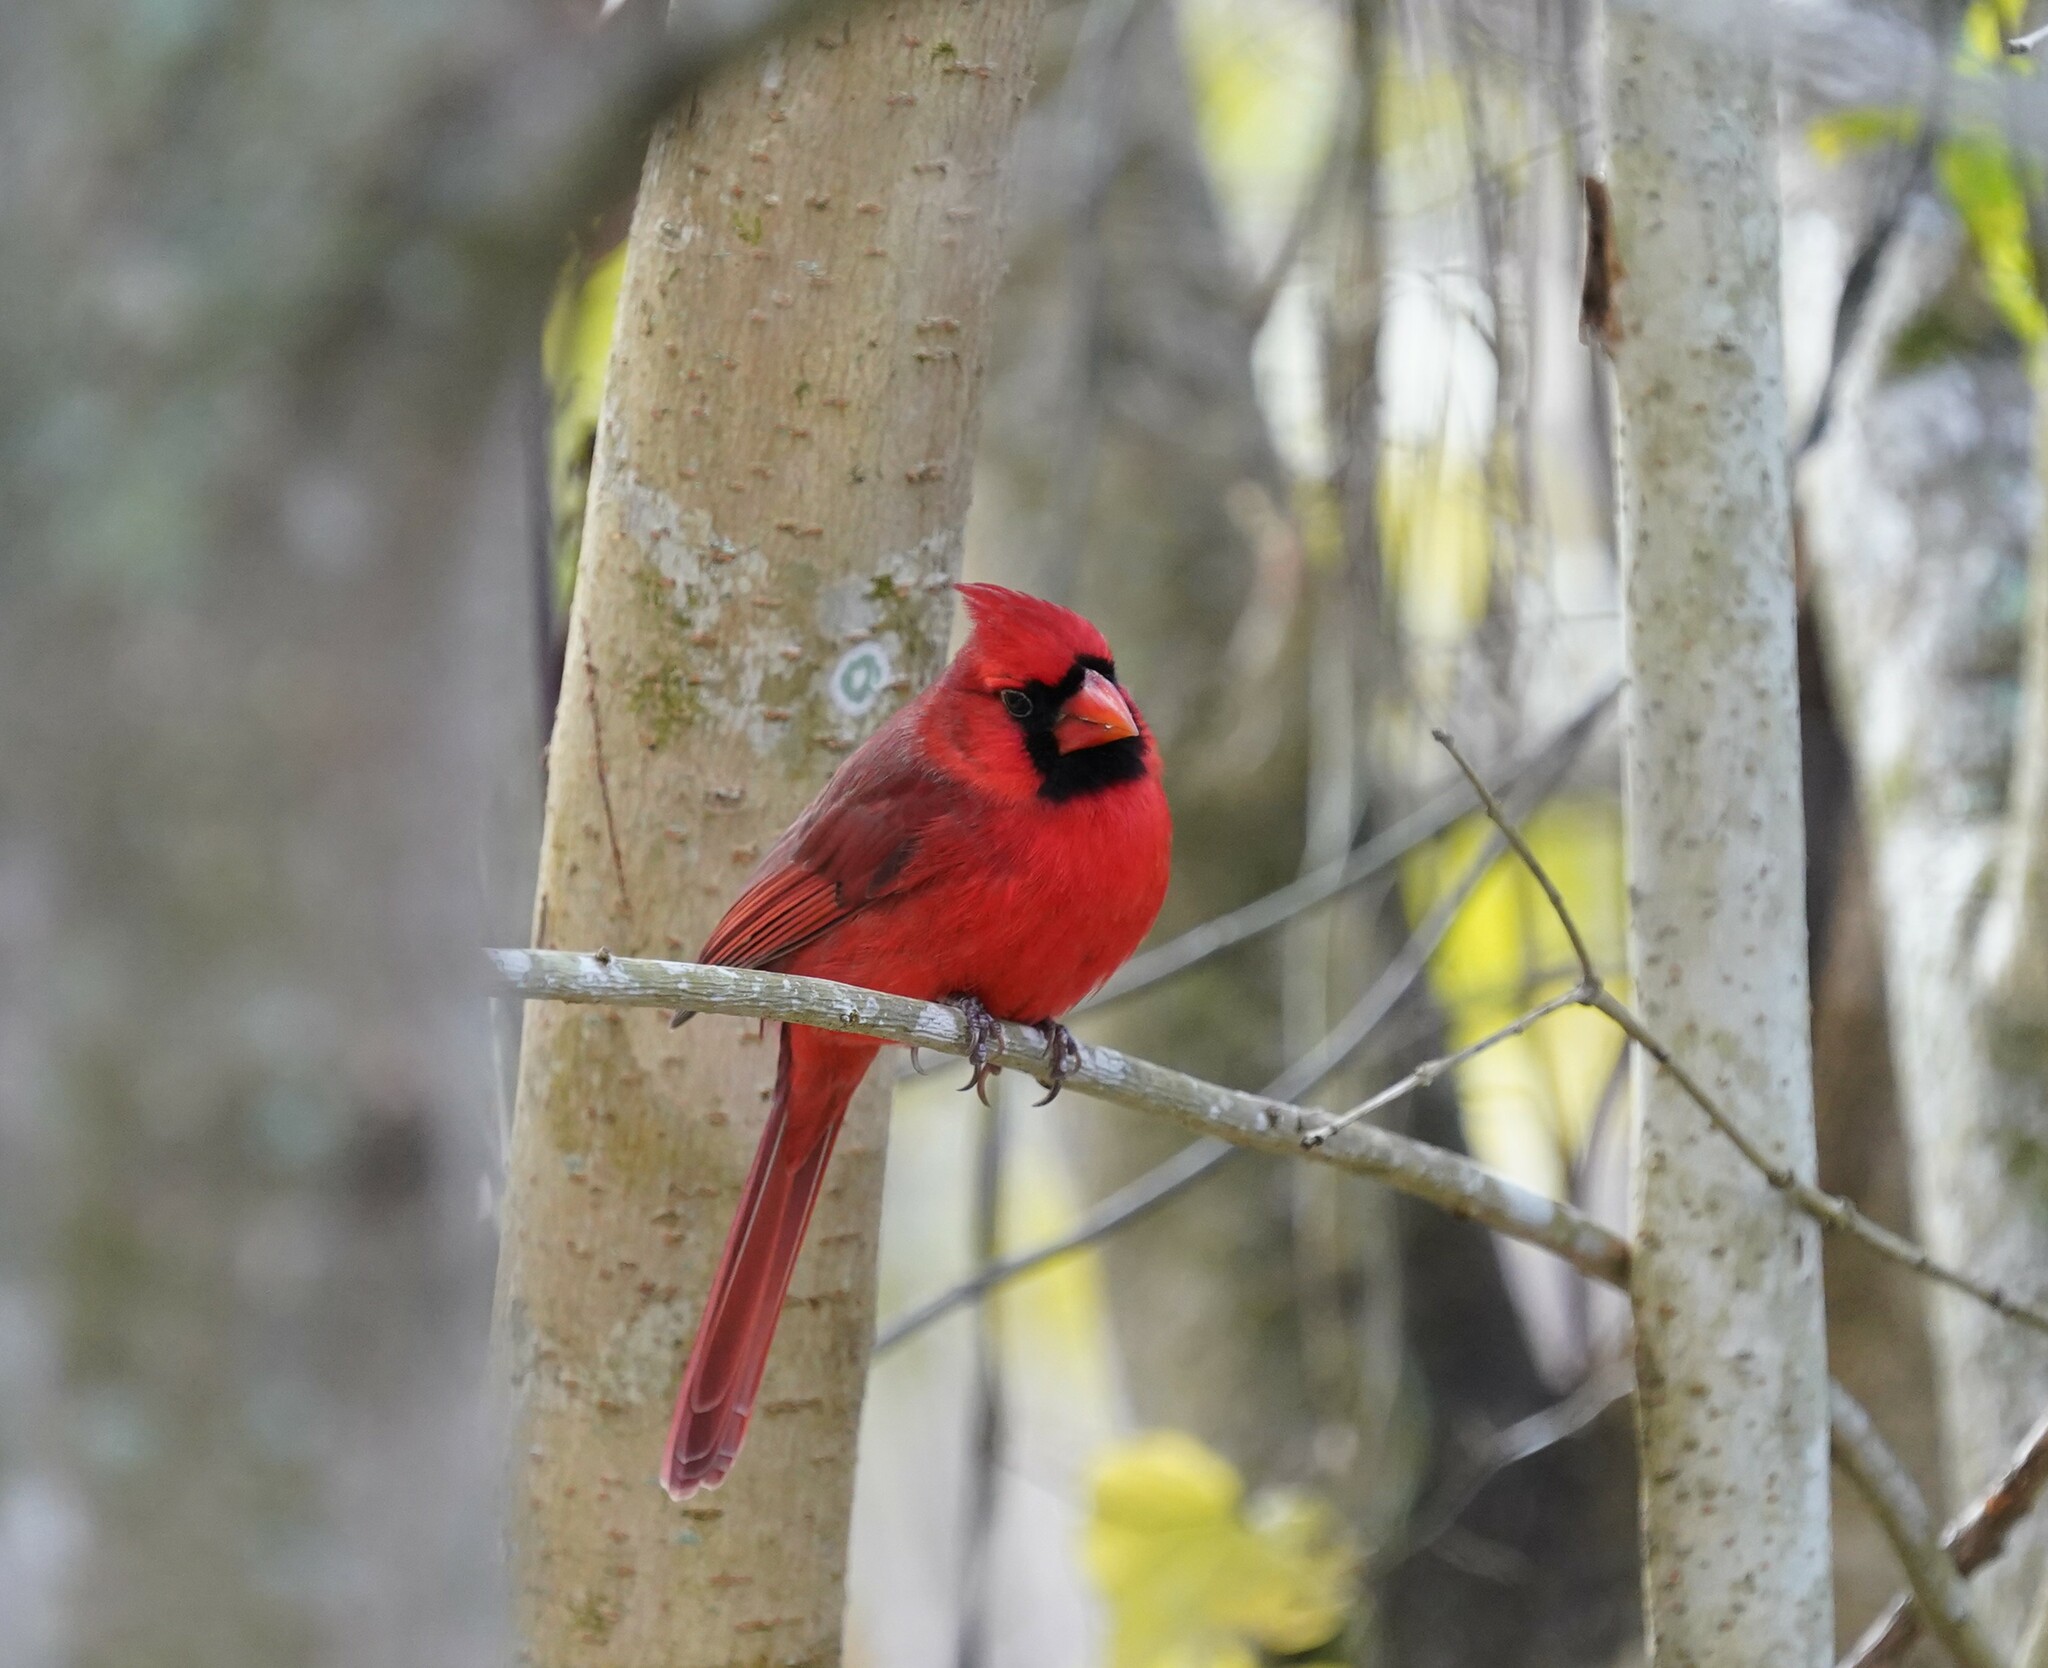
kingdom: Animalia
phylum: Chordata
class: Aves
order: Passeriformes
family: Cardinalidae
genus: Cardinalis
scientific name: Cardinalis cardinalis
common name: Northern cardinal
